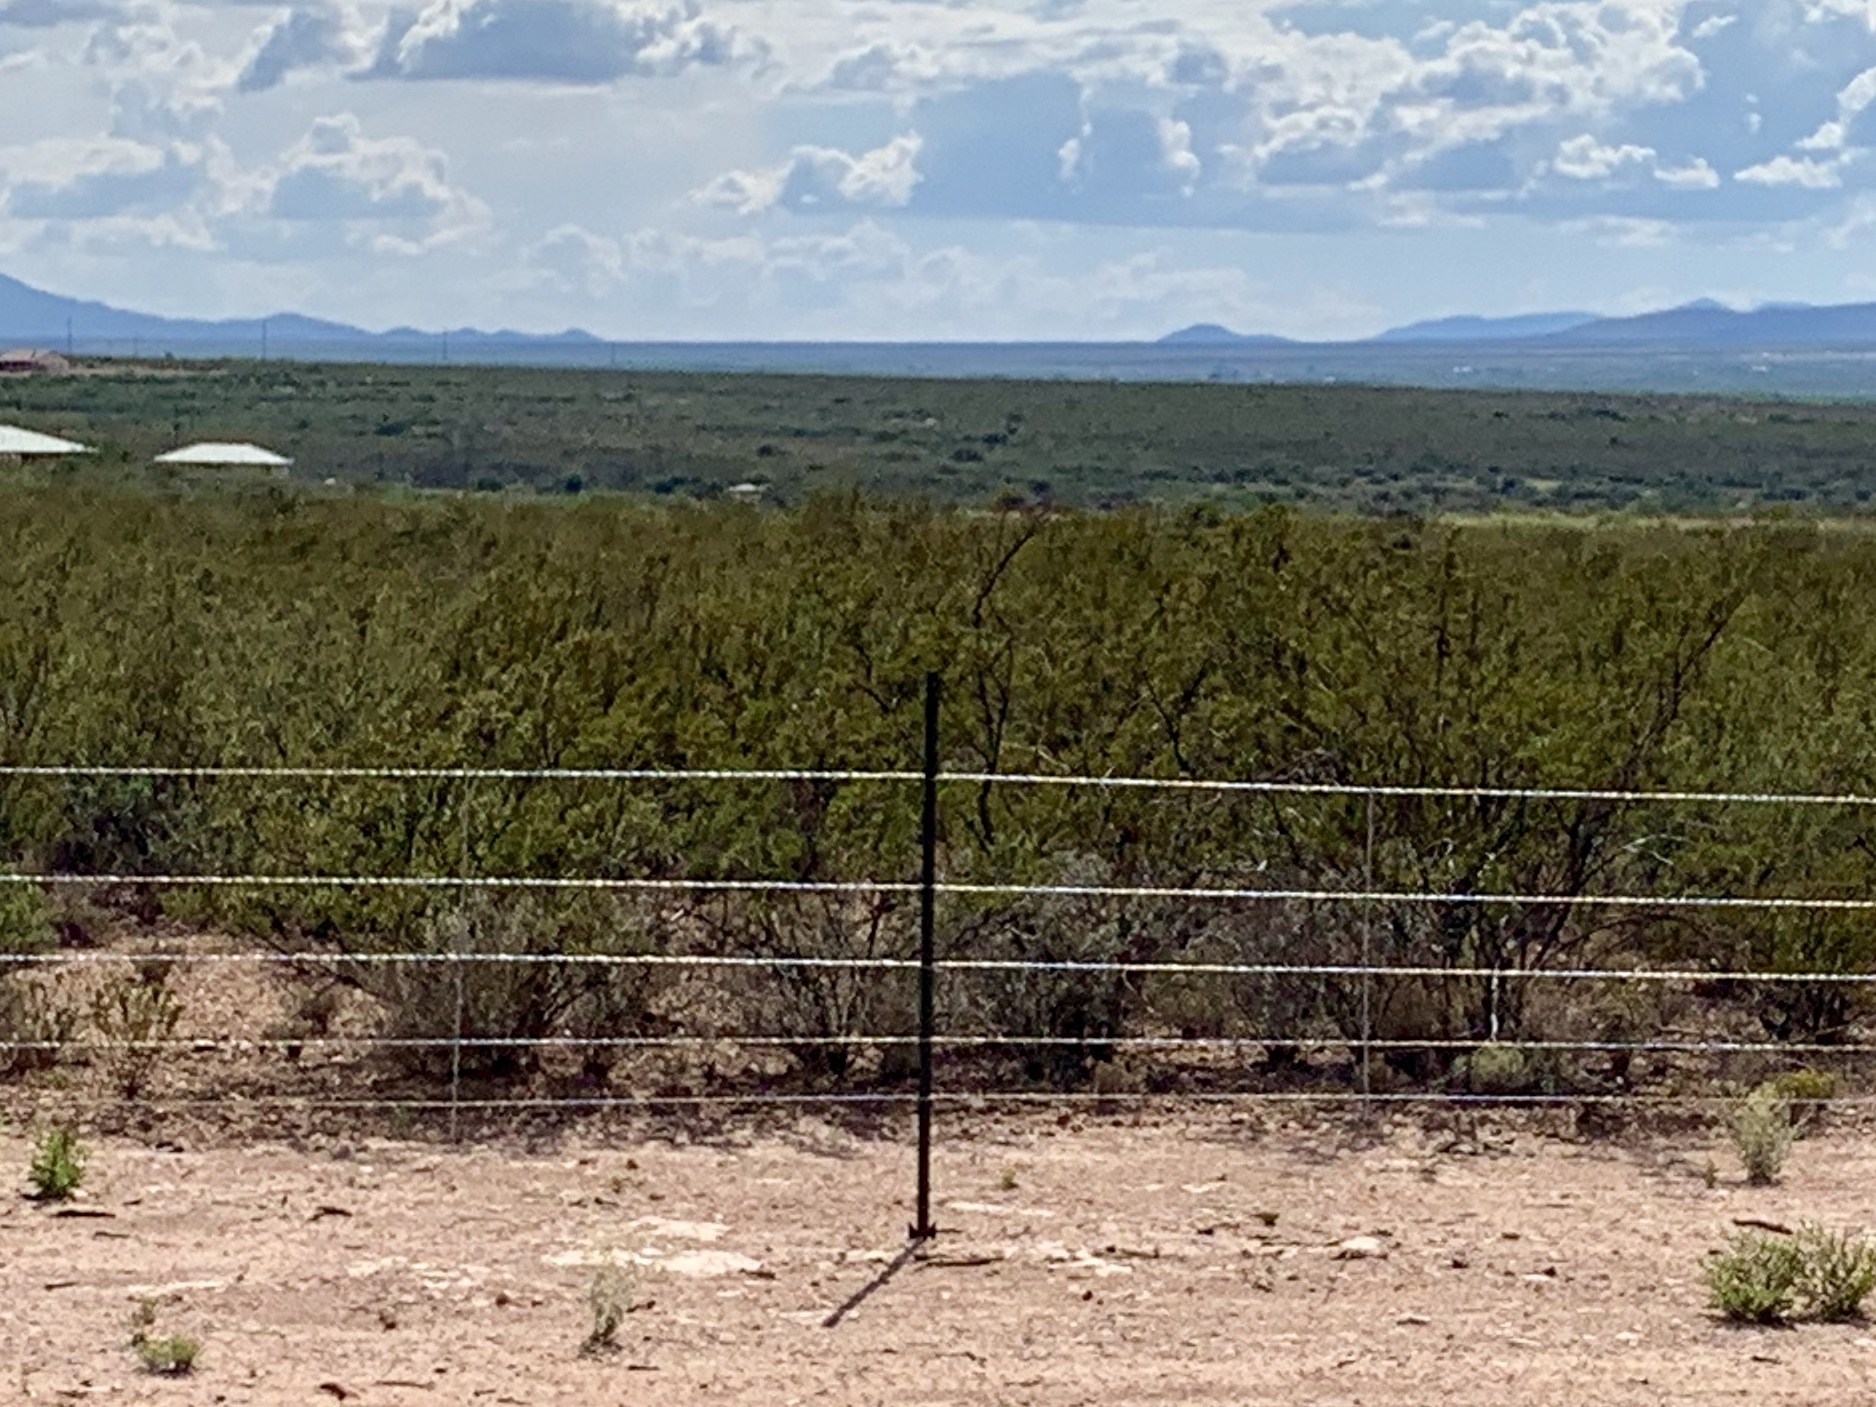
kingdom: Plantae
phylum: Tracheophyta
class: Magnoliopsida
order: Zygophyllales
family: Zygophyllaceae
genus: Larrea
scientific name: Larrea tridentata
